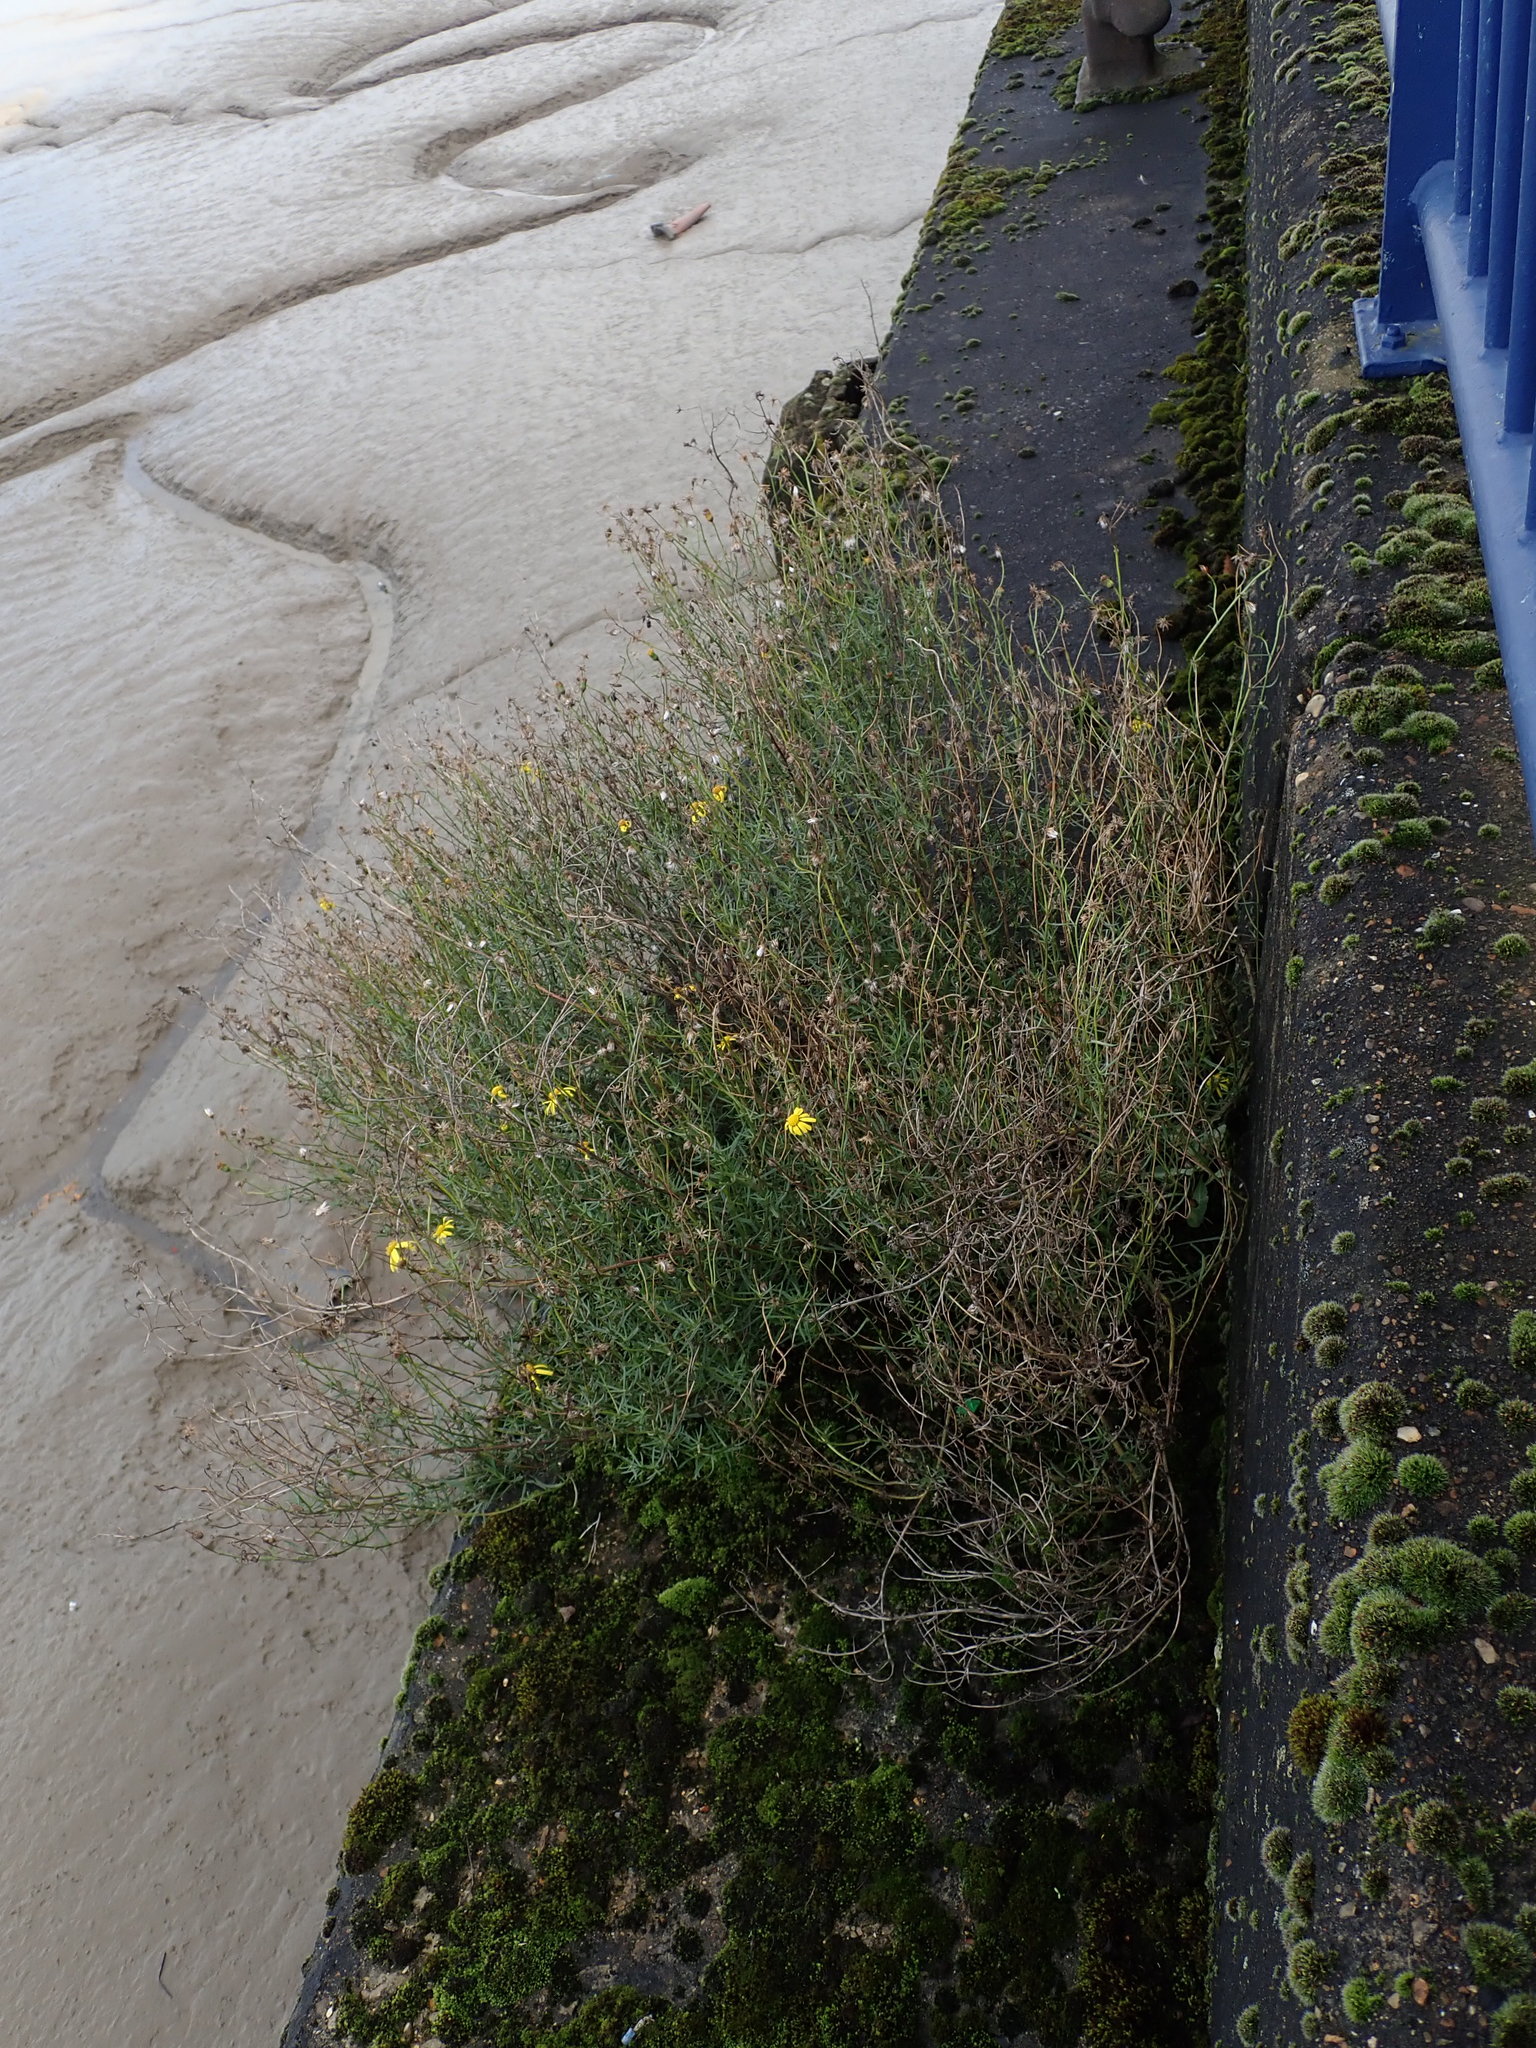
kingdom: Plantae
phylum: Tracheophyta
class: Magnoliopsida
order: Asterales
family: Asteraceae
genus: Senecio
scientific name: Senecio inaequidens
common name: Narrow-leaved ragwort
